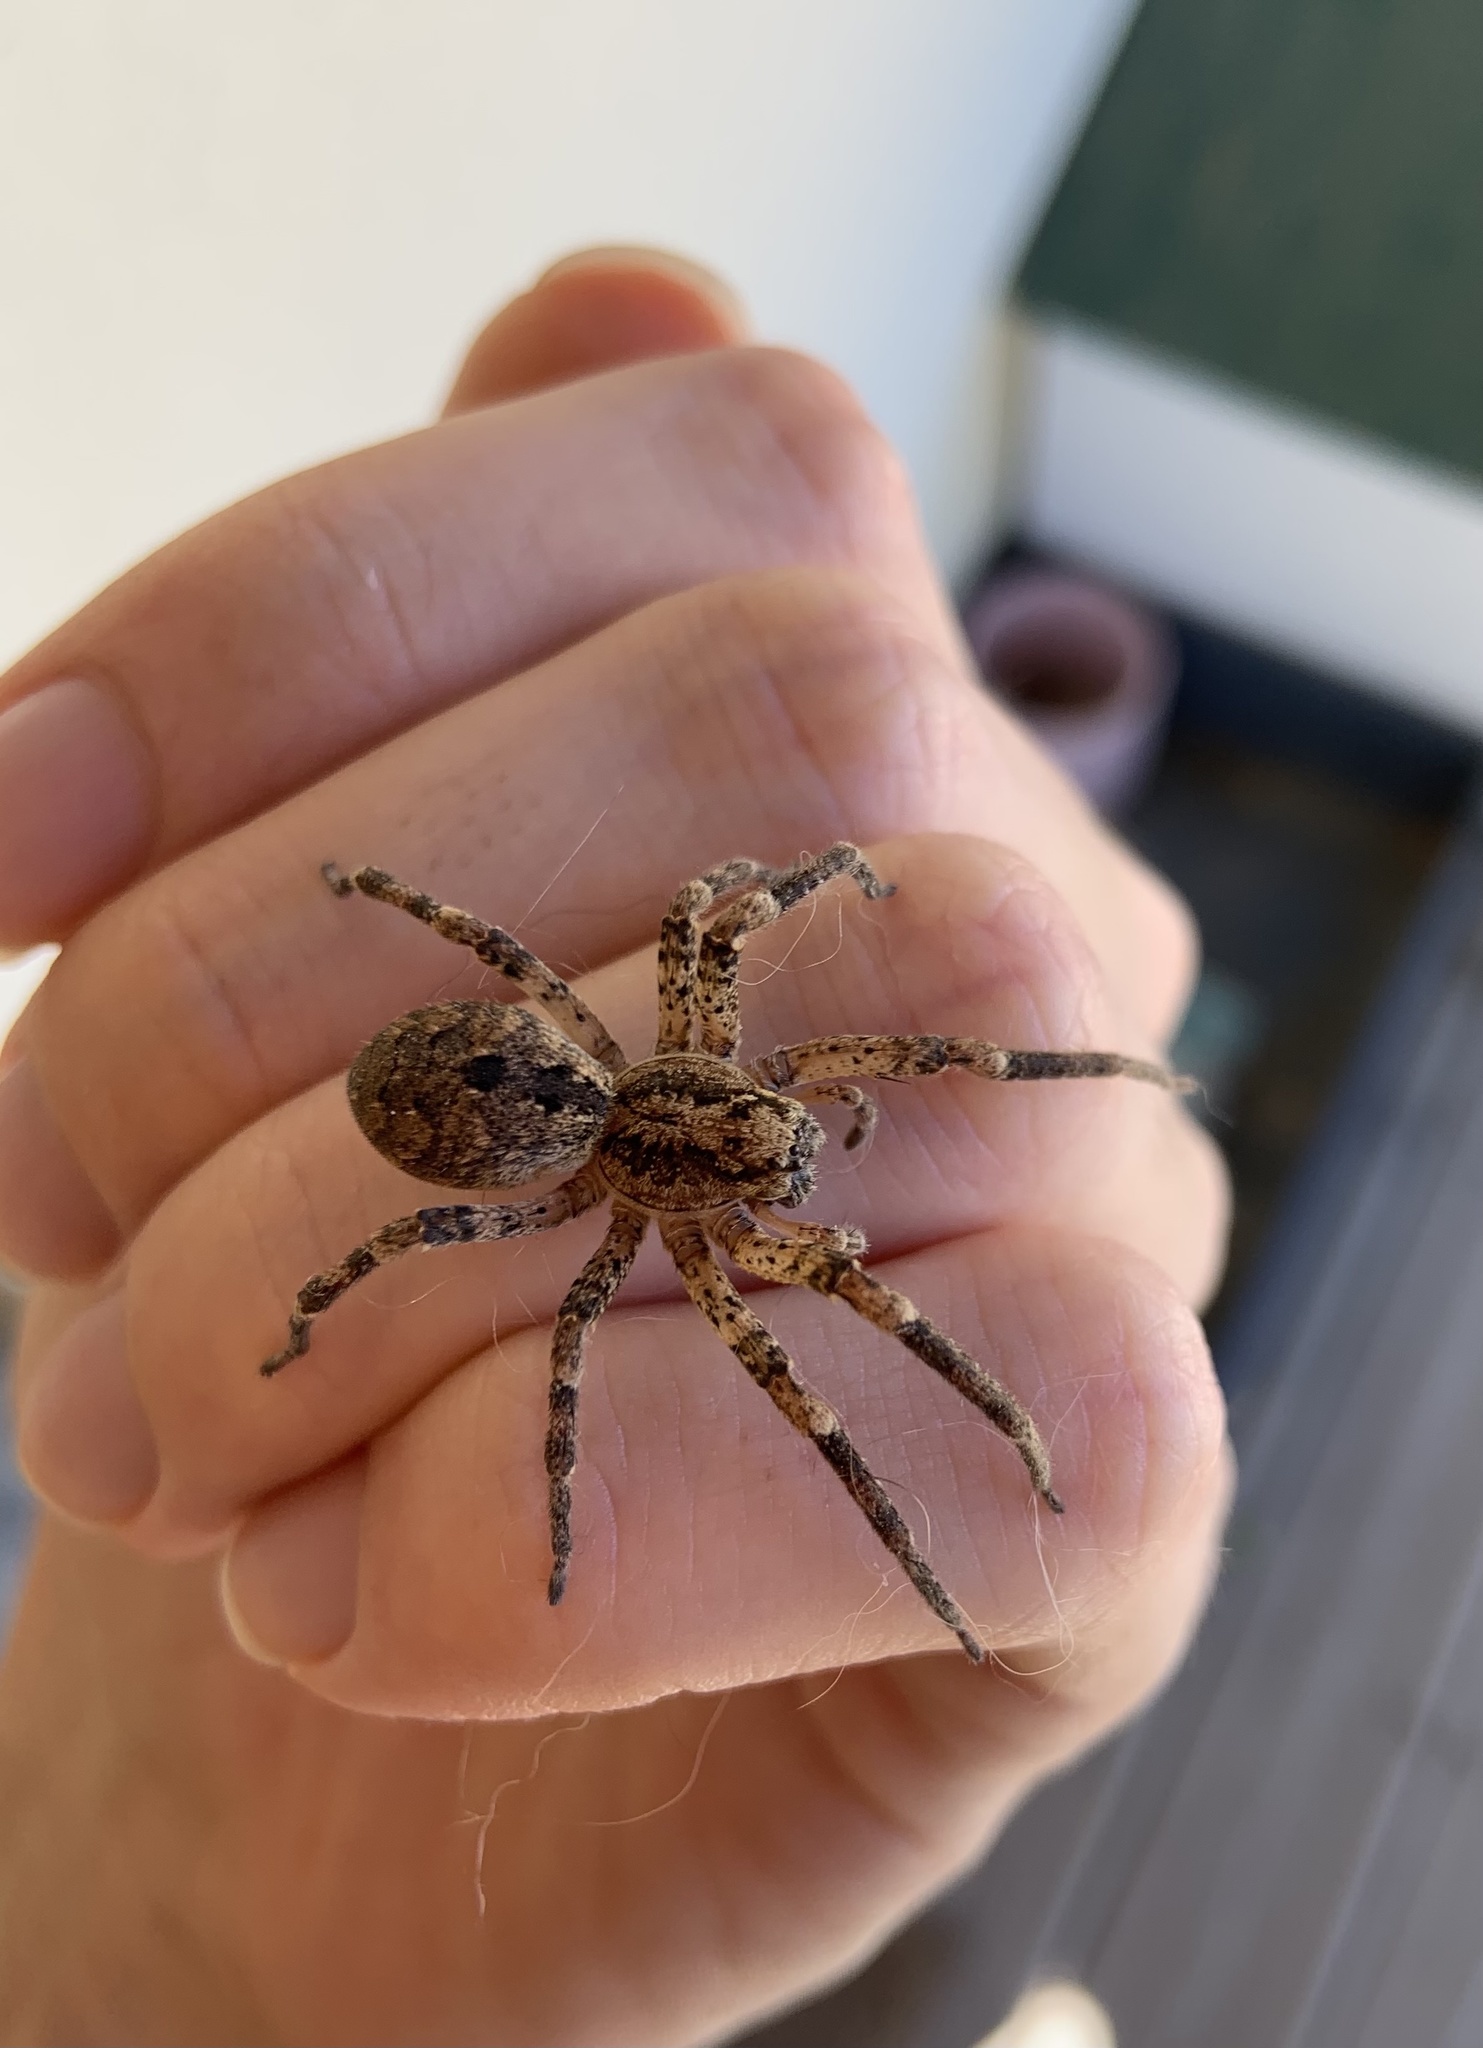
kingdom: Animalia
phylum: Arthropoda
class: Arachnida
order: Araneae
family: Zoropsidae
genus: Zoropsis
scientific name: Zoropsis spinimana
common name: Zoropsid spider
